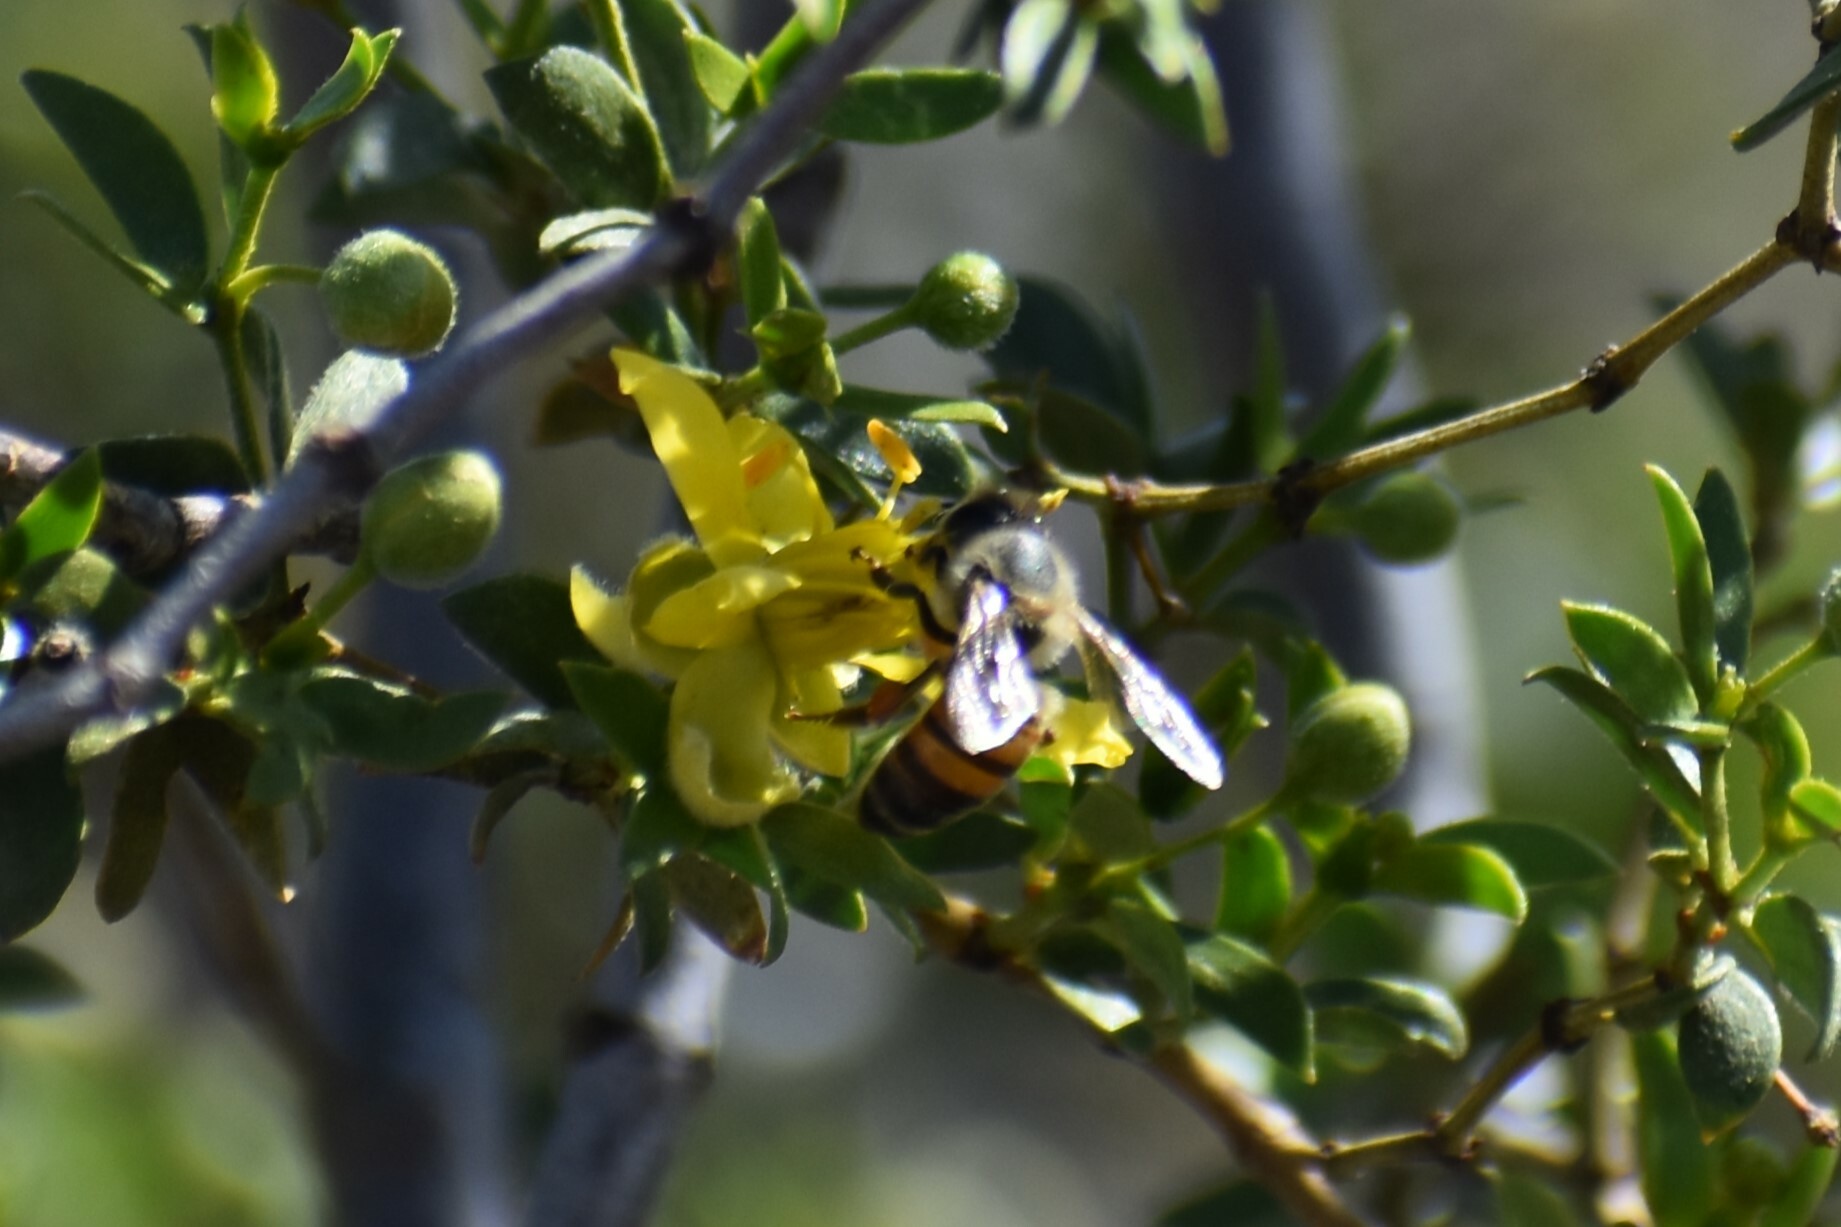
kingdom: Animalia
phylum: Arthropoda
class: Insecta
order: Hymenoptera
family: Apidae
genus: Apis
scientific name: Apis mellifera
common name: Honey bee
